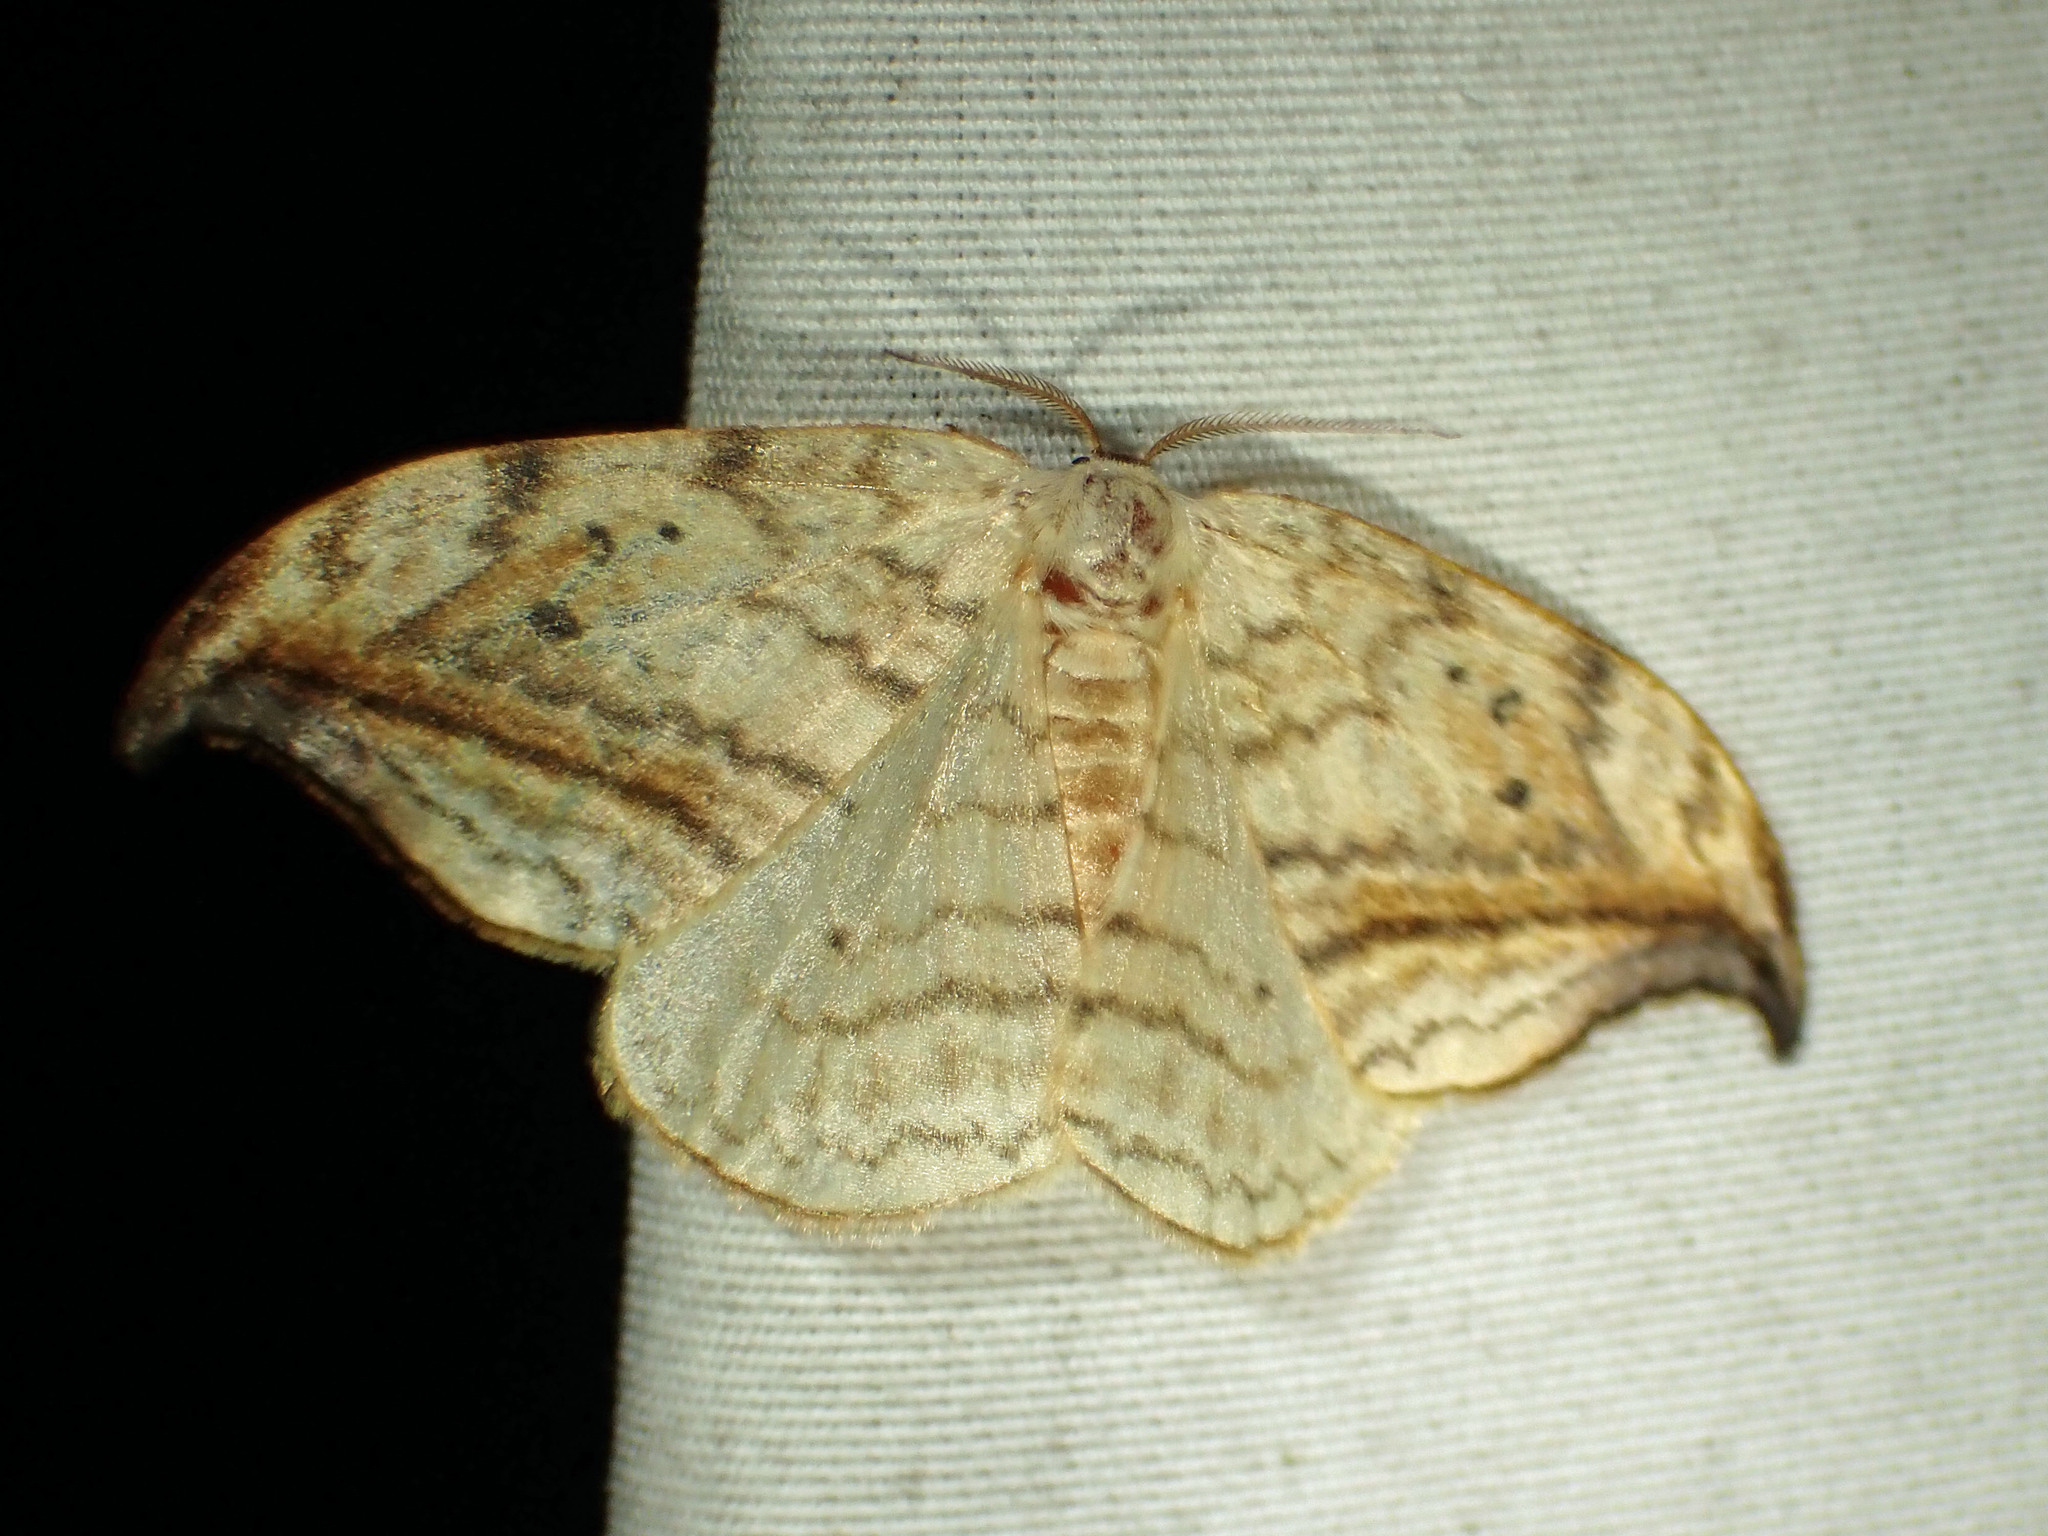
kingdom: Animalia
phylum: Arthropoda
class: Insecta
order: Lepidoptera
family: Drepanidae
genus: Drepana
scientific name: Drepana arcuata
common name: Arched hooktip moth
